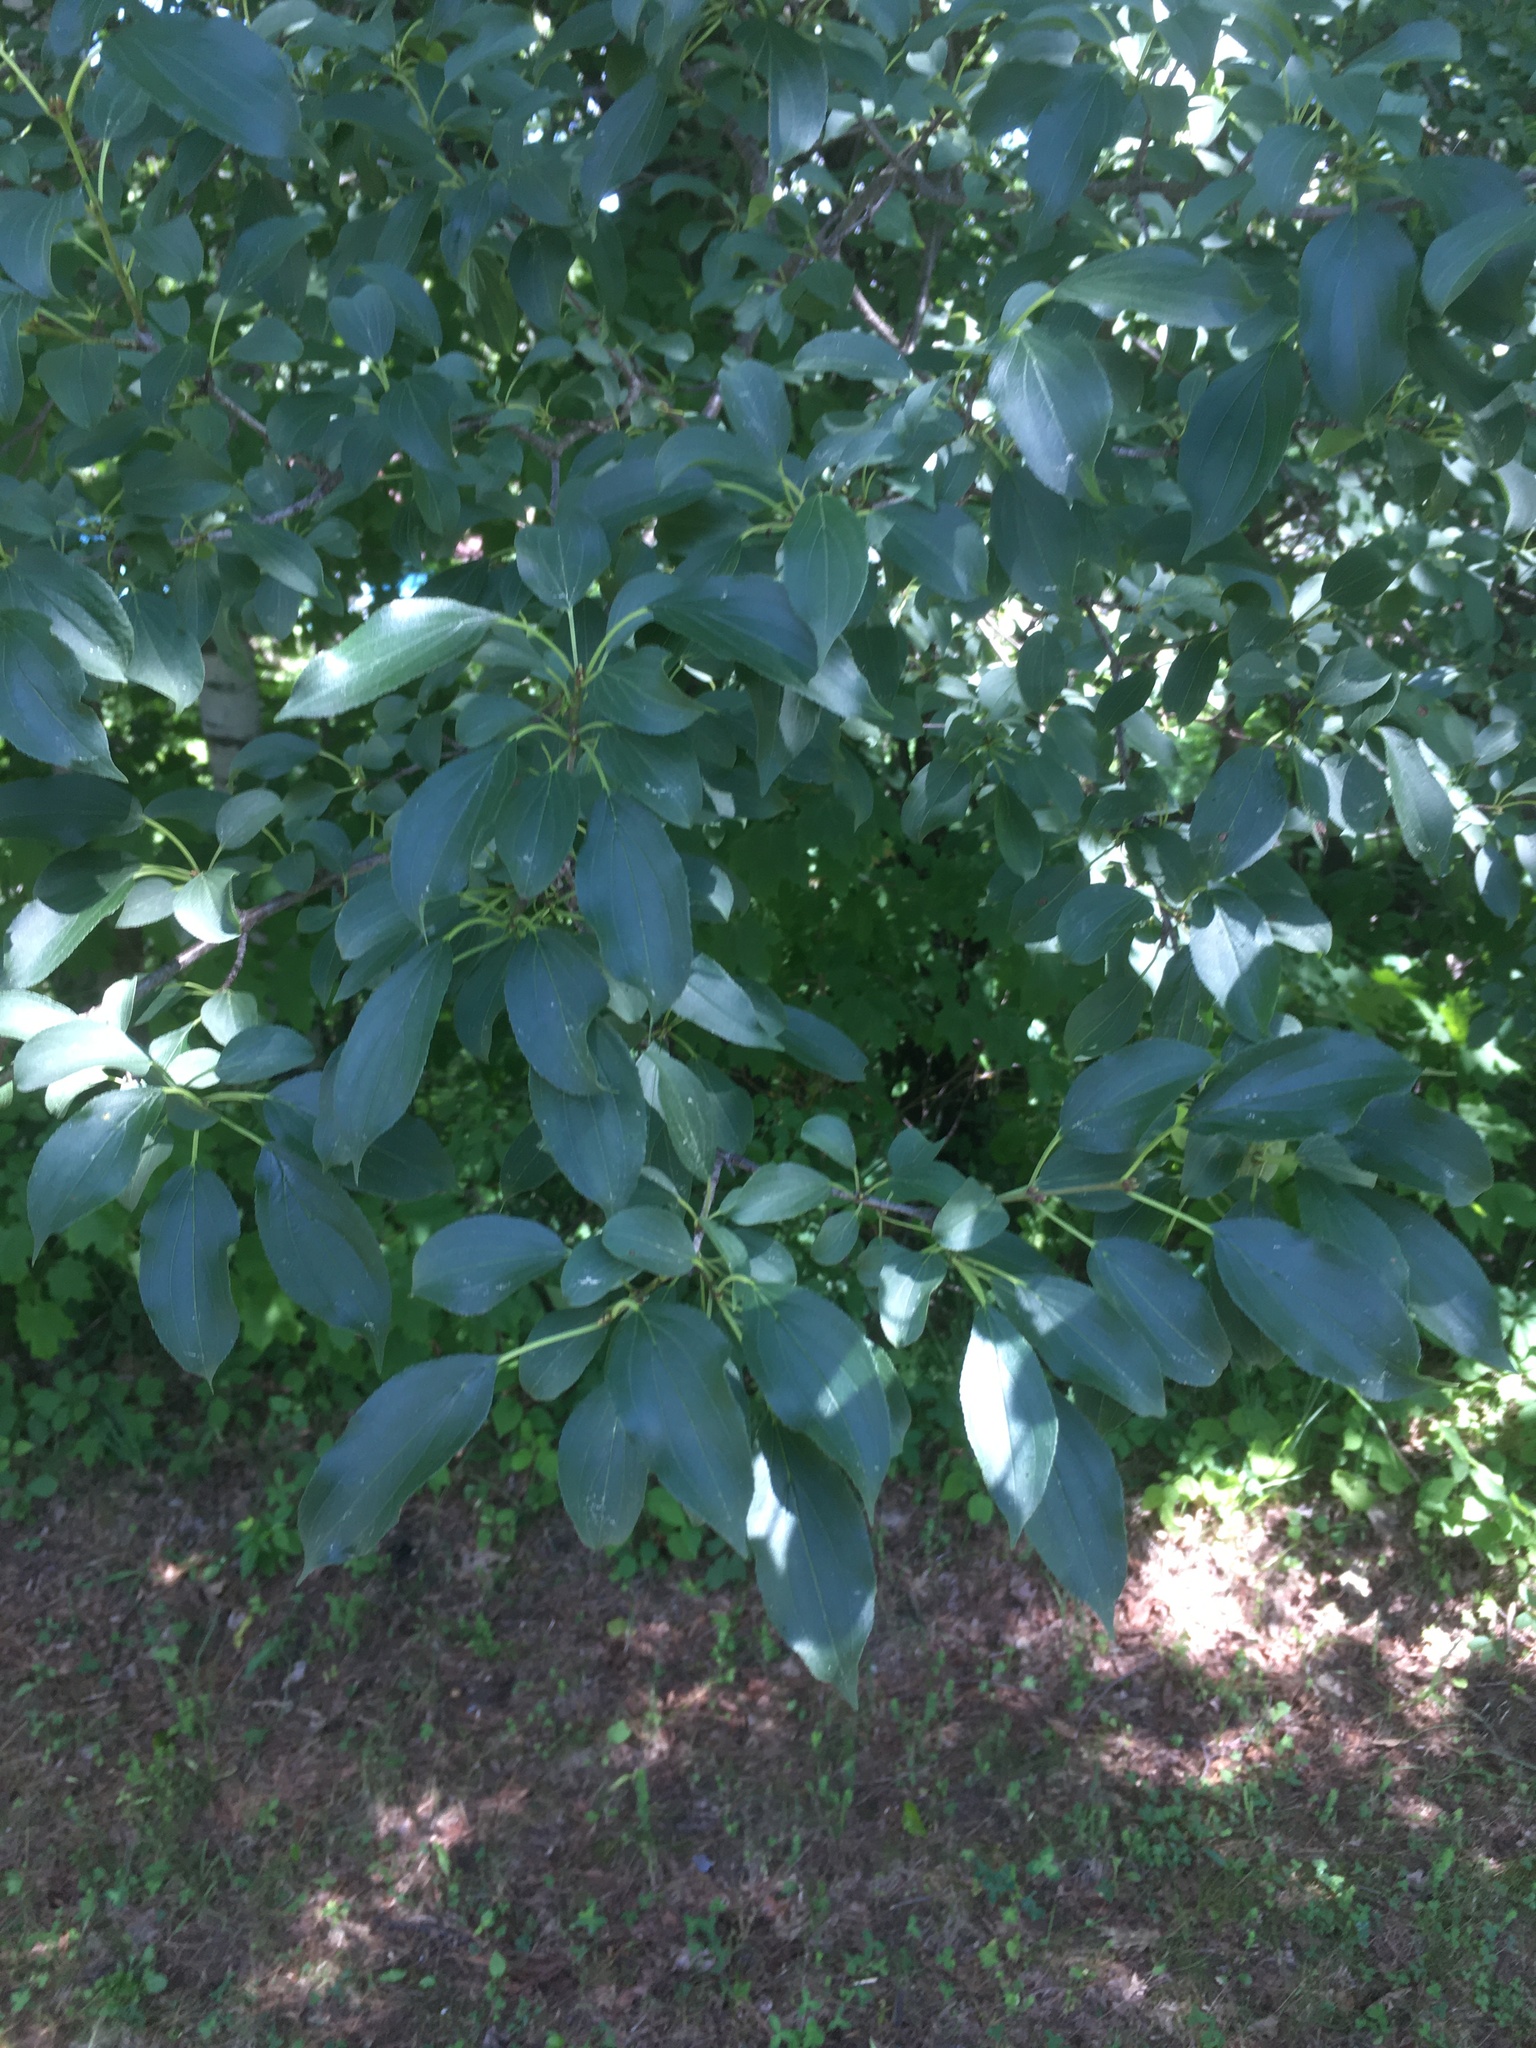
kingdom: Plantae
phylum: Tracheophyta
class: Magnoliopsida
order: Rosales
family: Rhamnaceae
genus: Rhamnus
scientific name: Rhamnus cathartica
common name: Common buckthorn
